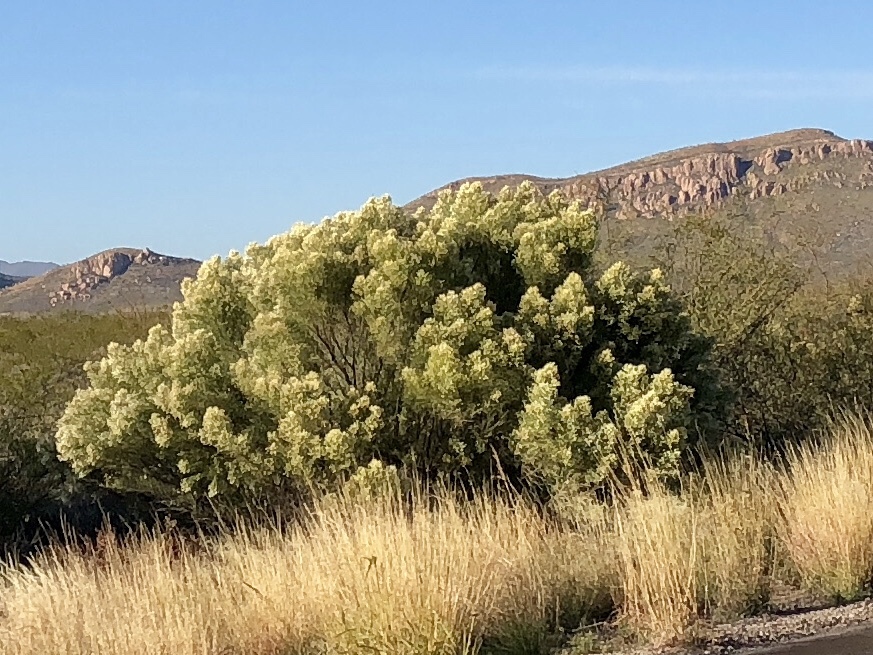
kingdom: Plantae
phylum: Tracheophyta
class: Magnoliopsida
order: Asterales
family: Asteraceae
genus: Baccharis
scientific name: Baccharis sarothroides
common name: Desert-broom
